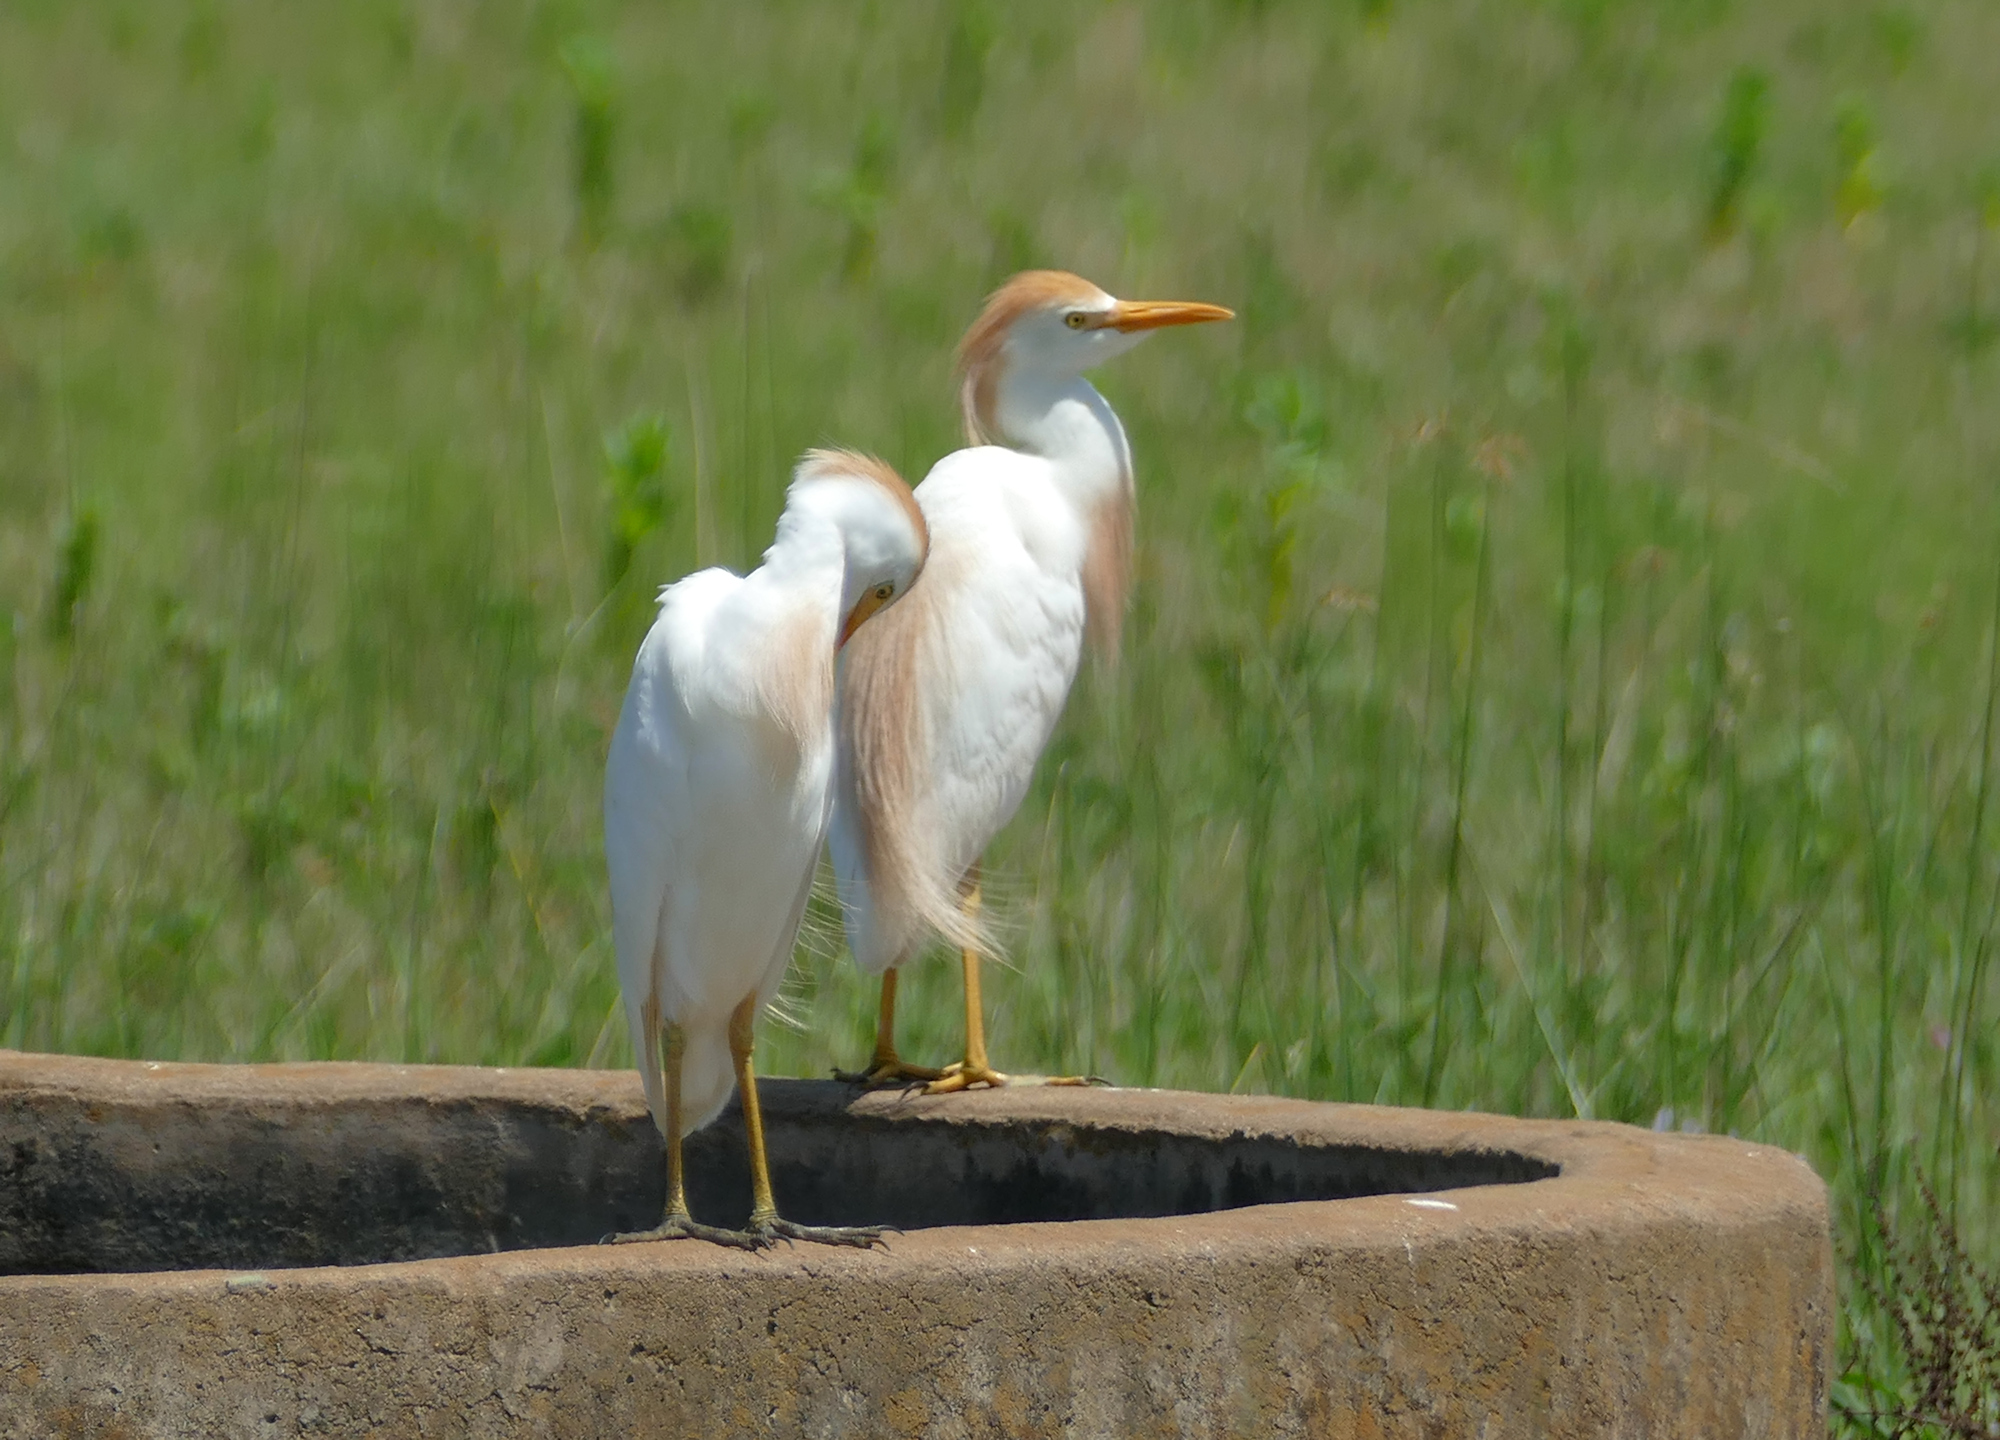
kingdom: Animalia
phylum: Chordata
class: Aves
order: Pelecaniformes
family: Ardeidae
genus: Bubulcus
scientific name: Bubulcus ibis
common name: Cattle egret
